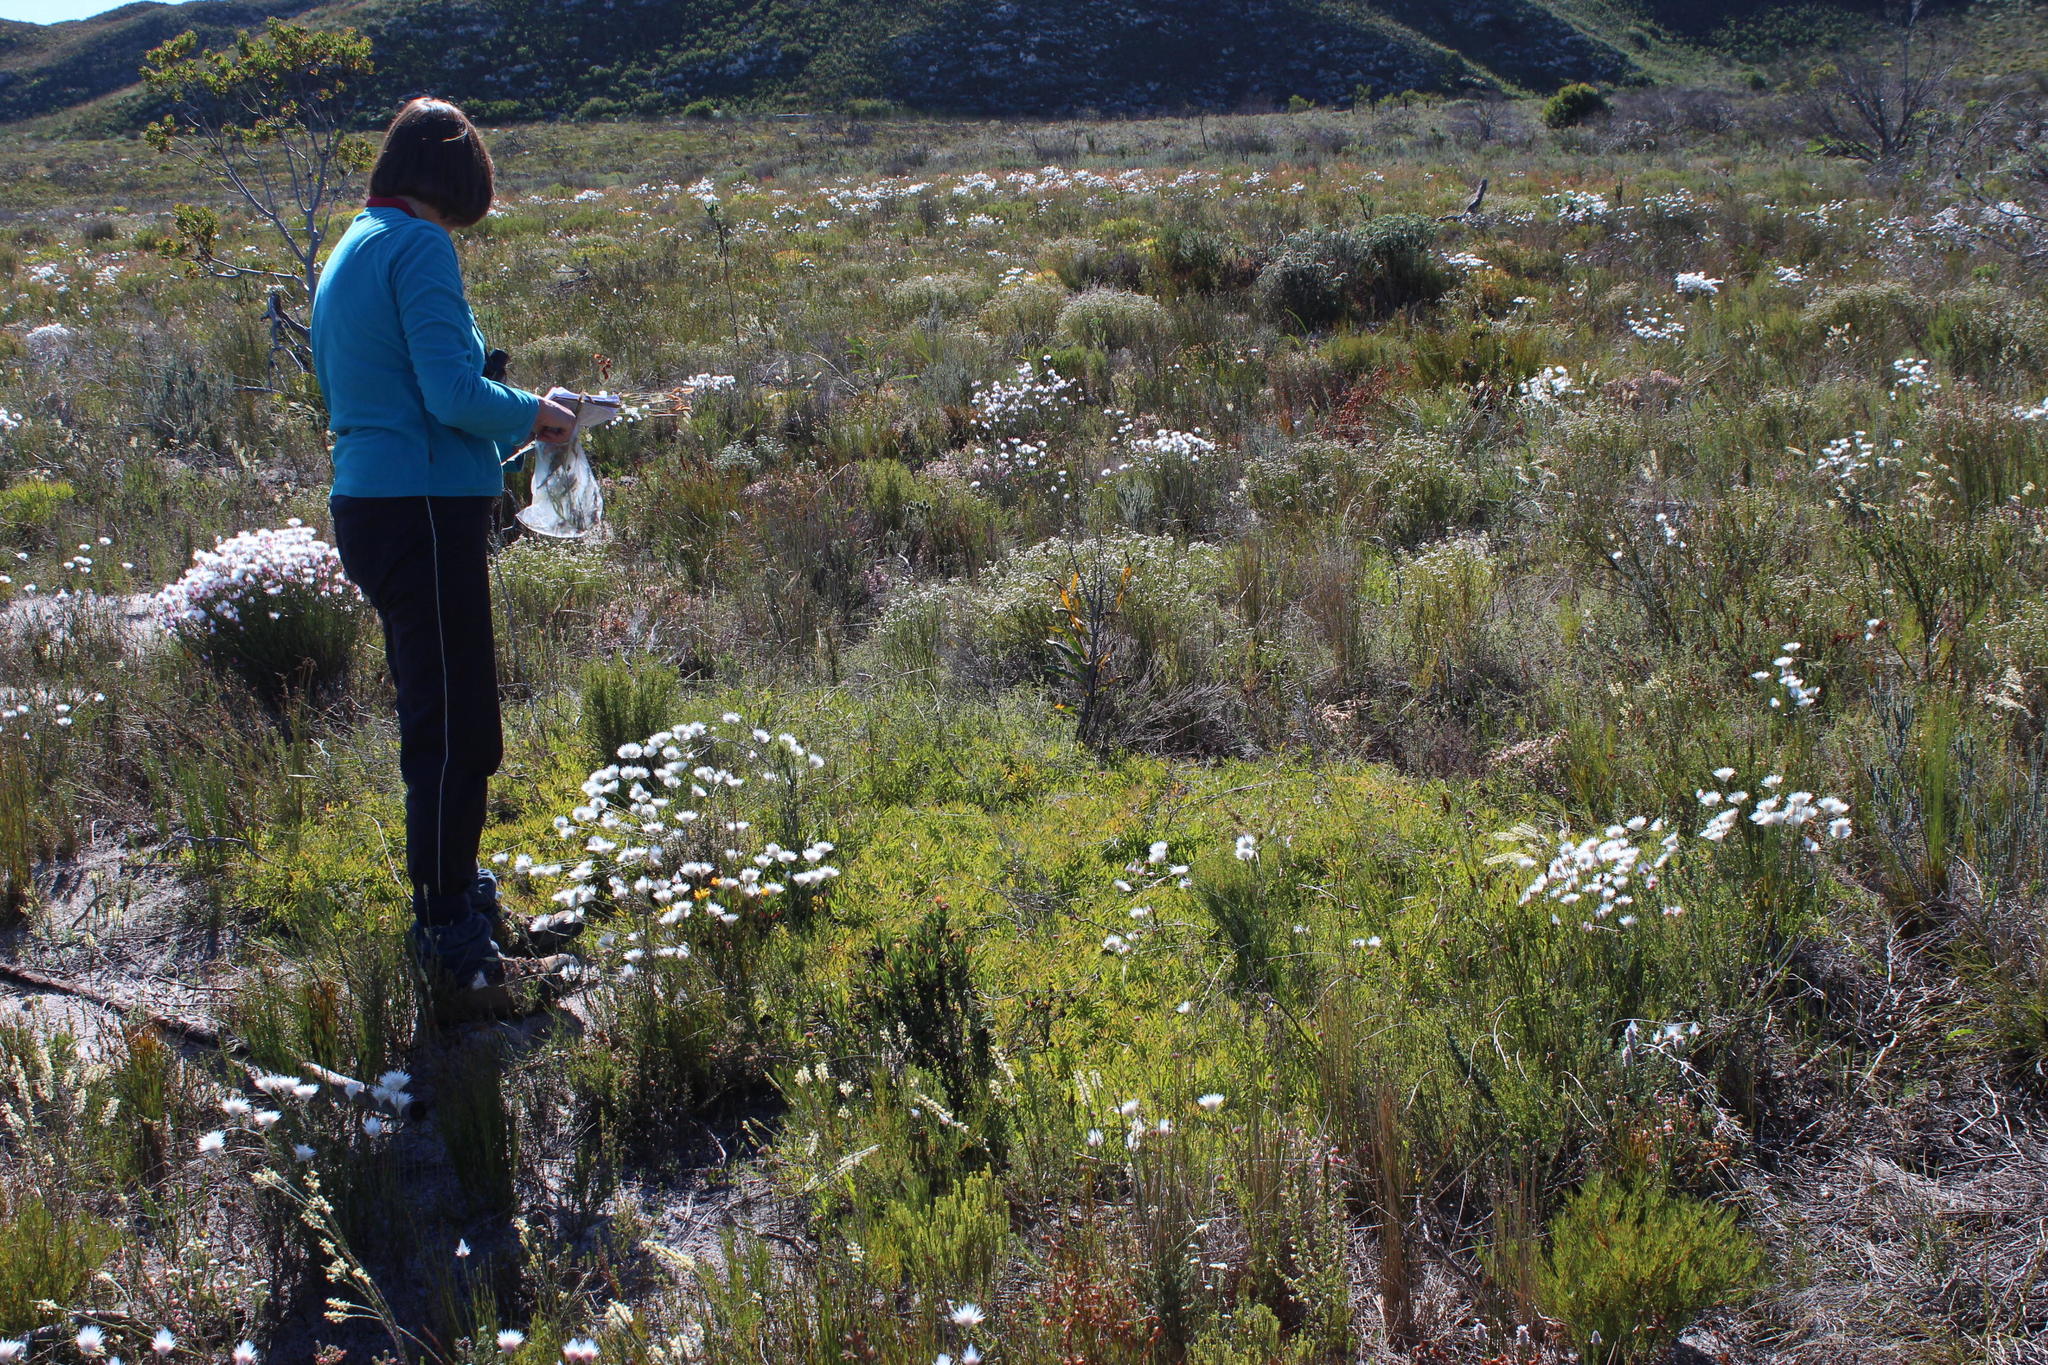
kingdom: Plantae
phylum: Tracheophyta
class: Magnoliopsida
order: Proteales
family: Proteaceae
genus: Leucospermum
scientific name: Leucospermum pedunculatum
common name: White-trailing pincushion
